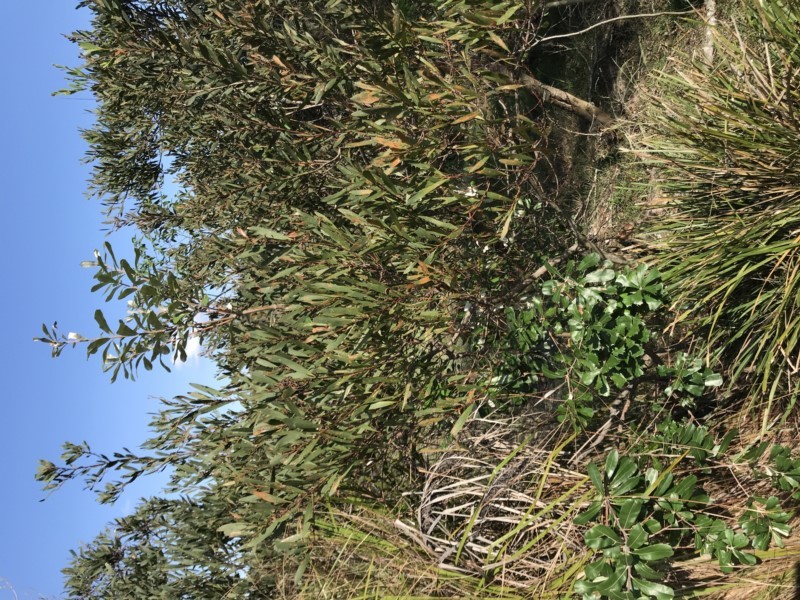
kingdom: Plantae
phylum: Tracheophyta
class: Magnoliopsida
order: Proteales
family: Proteaceae
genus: Banksia
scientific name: Banksia integrifolia
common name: White-honeysuckle
